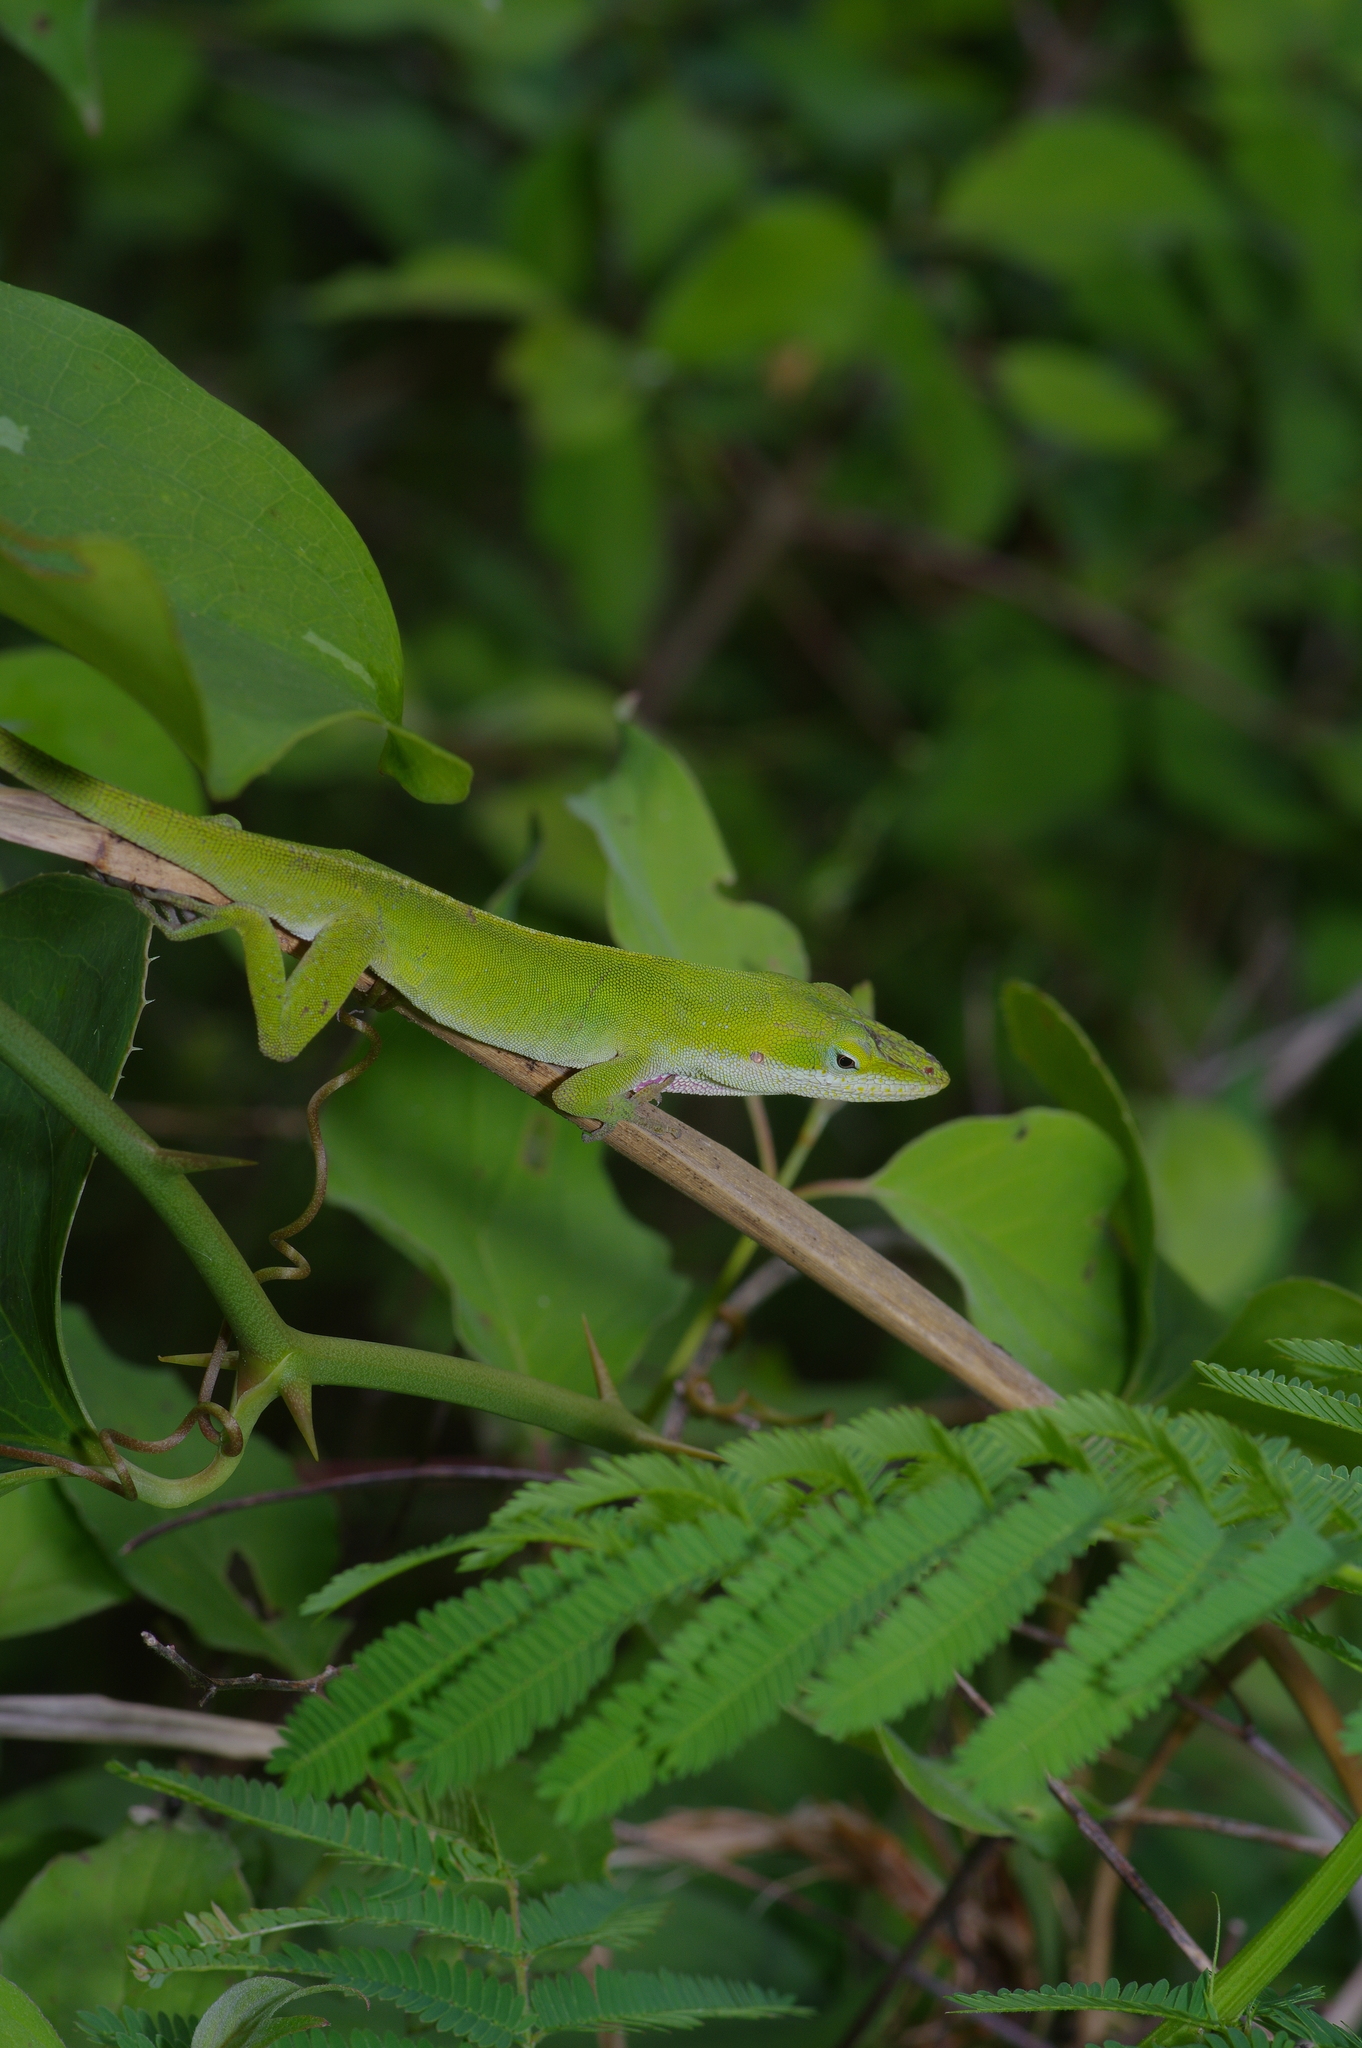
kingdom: Animalia
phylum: Chordata
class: Squamata
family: Dactyloidae
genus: Anolis
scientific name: Anolis carolinensis
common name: Green anole
